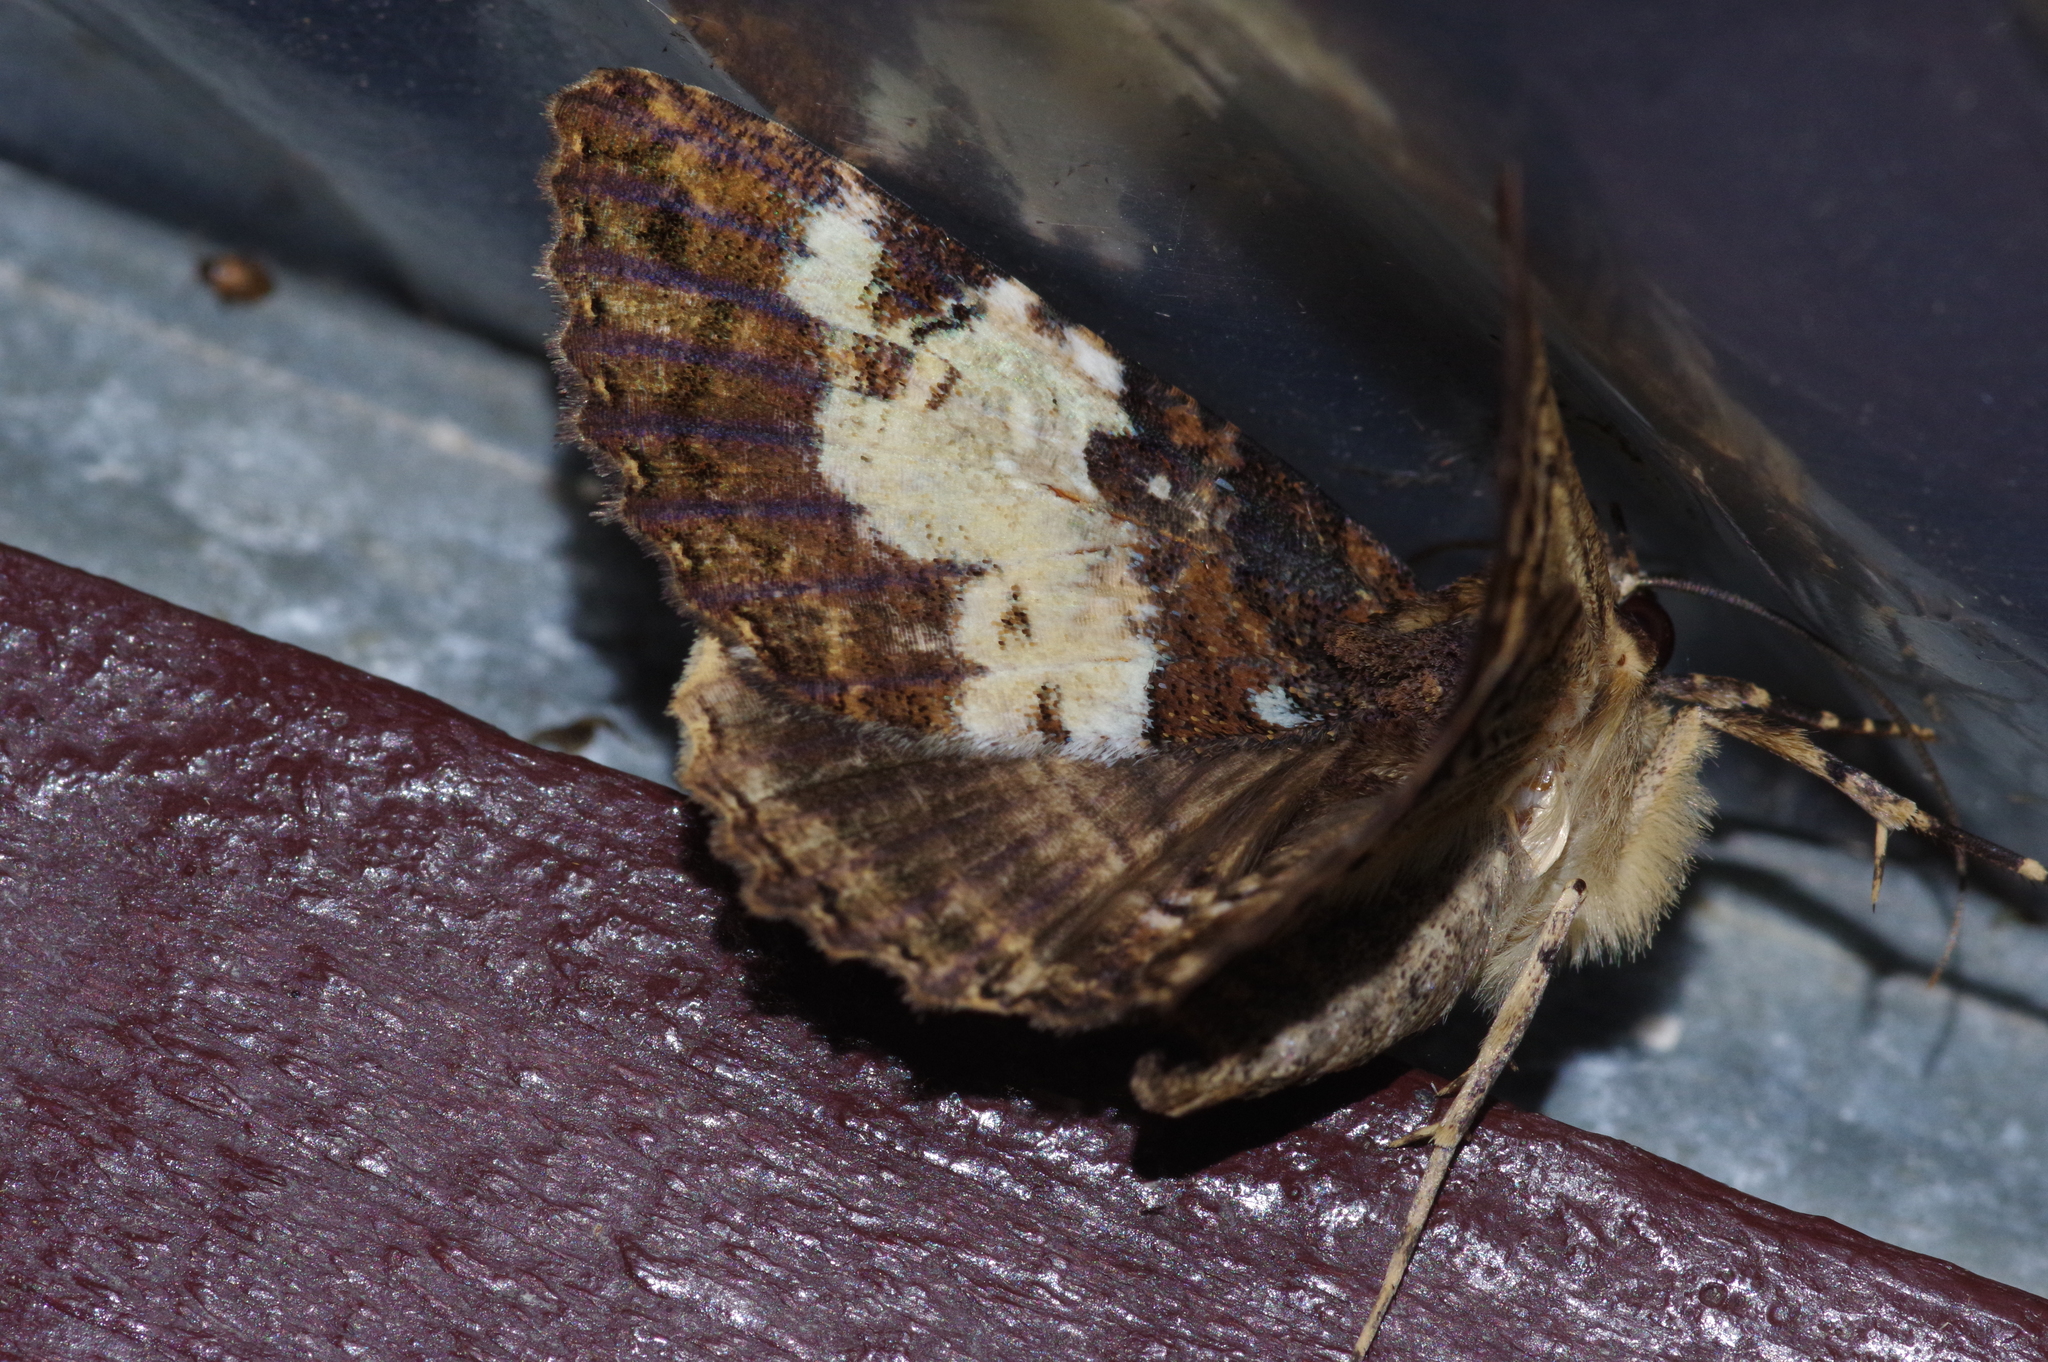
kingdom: Animalia
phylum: Arthropoda
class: Insecta
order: Lepidoptera
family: Erebidae
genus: Daddala
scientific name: Daddala lucilla
